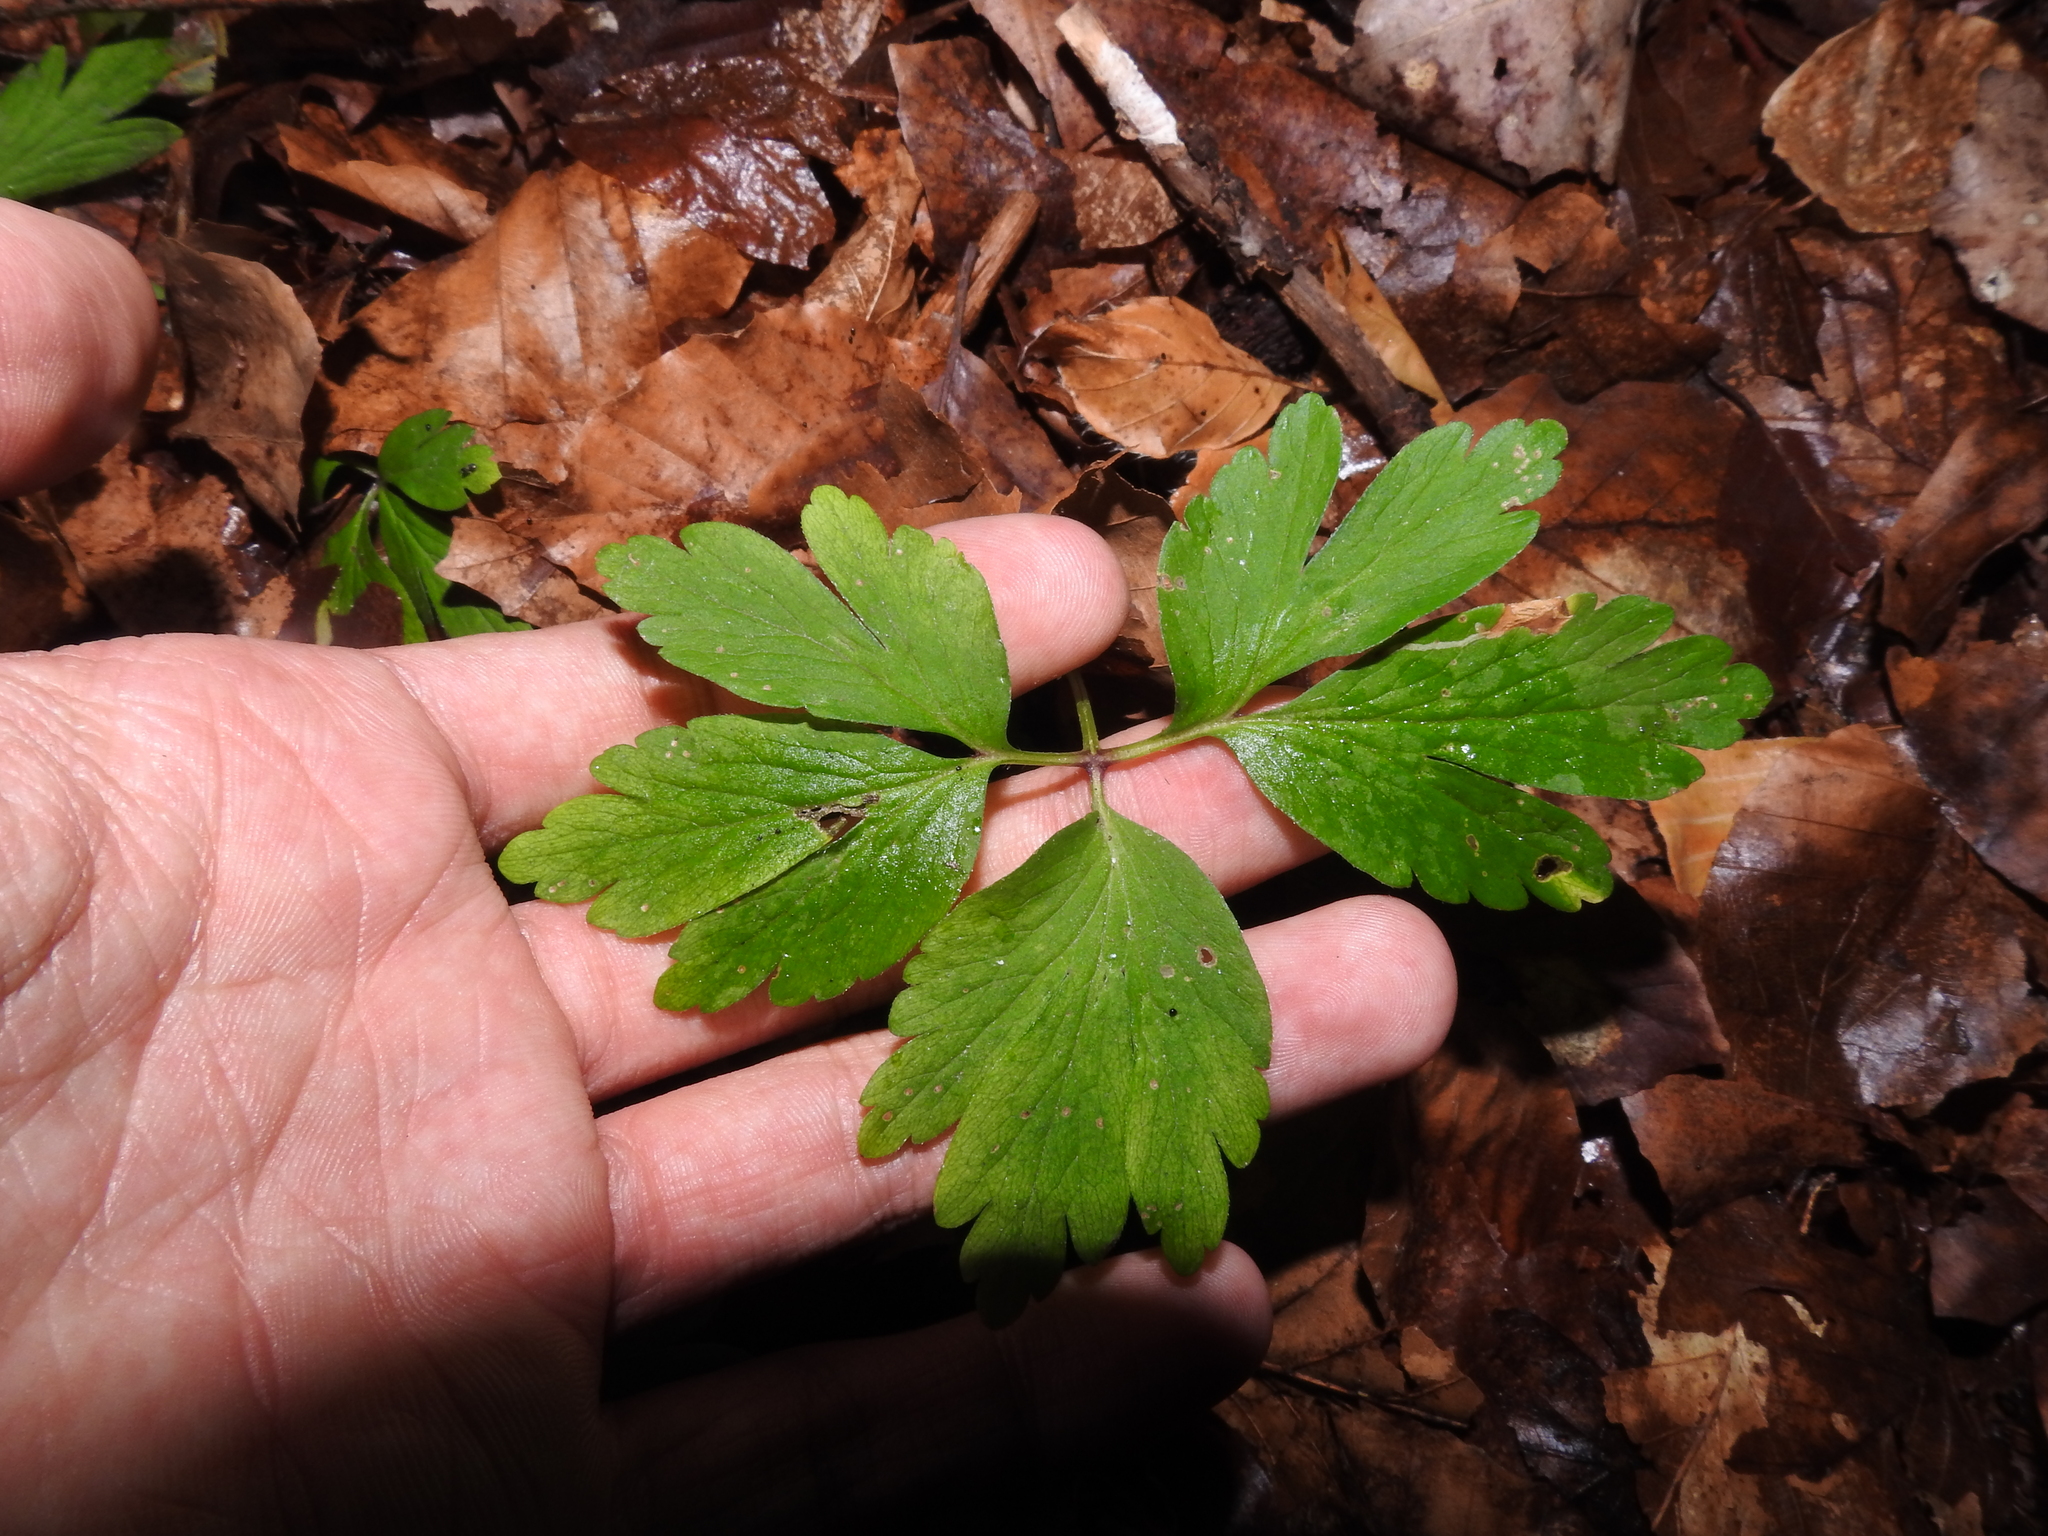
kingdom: Plantae
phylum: Tracheophyta
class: Magnoliopsida
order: Ranunculales
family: Ranunculaceae
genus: Anemone
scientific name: Anemone nemorosa
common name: Wood anemone
